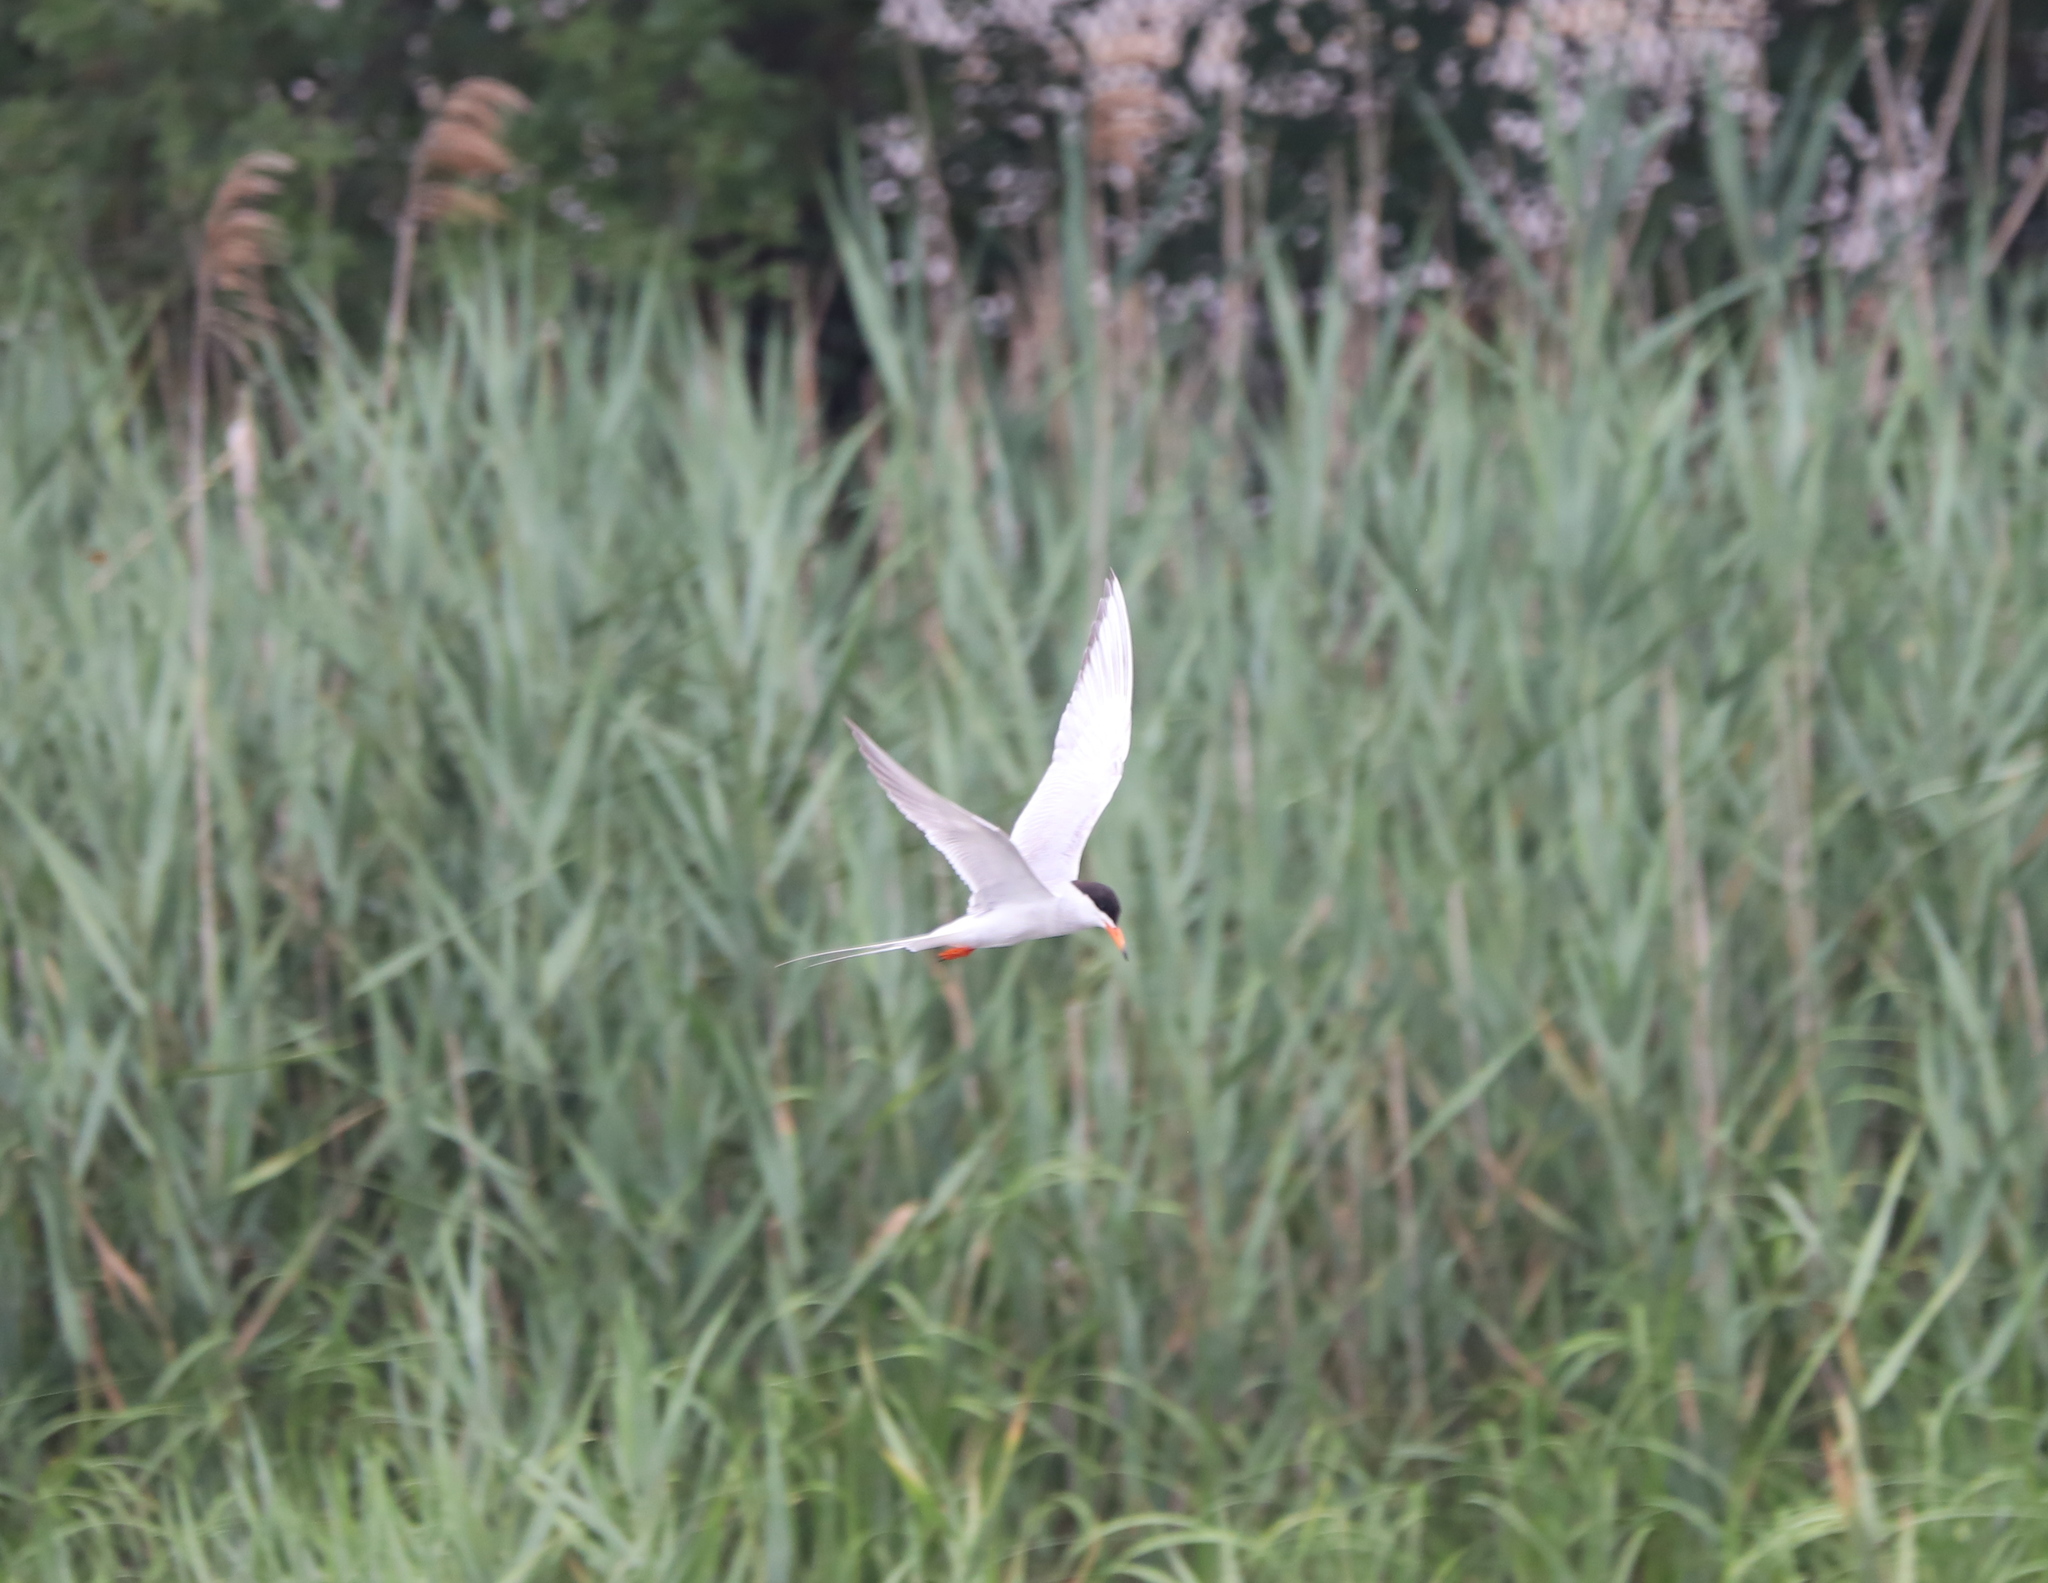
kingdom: Animalia
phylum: Chordata
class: Aves
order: Charadriiformes
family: Laridae
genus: Sterna
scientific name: Sterna forsteri
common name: Forster's tern
